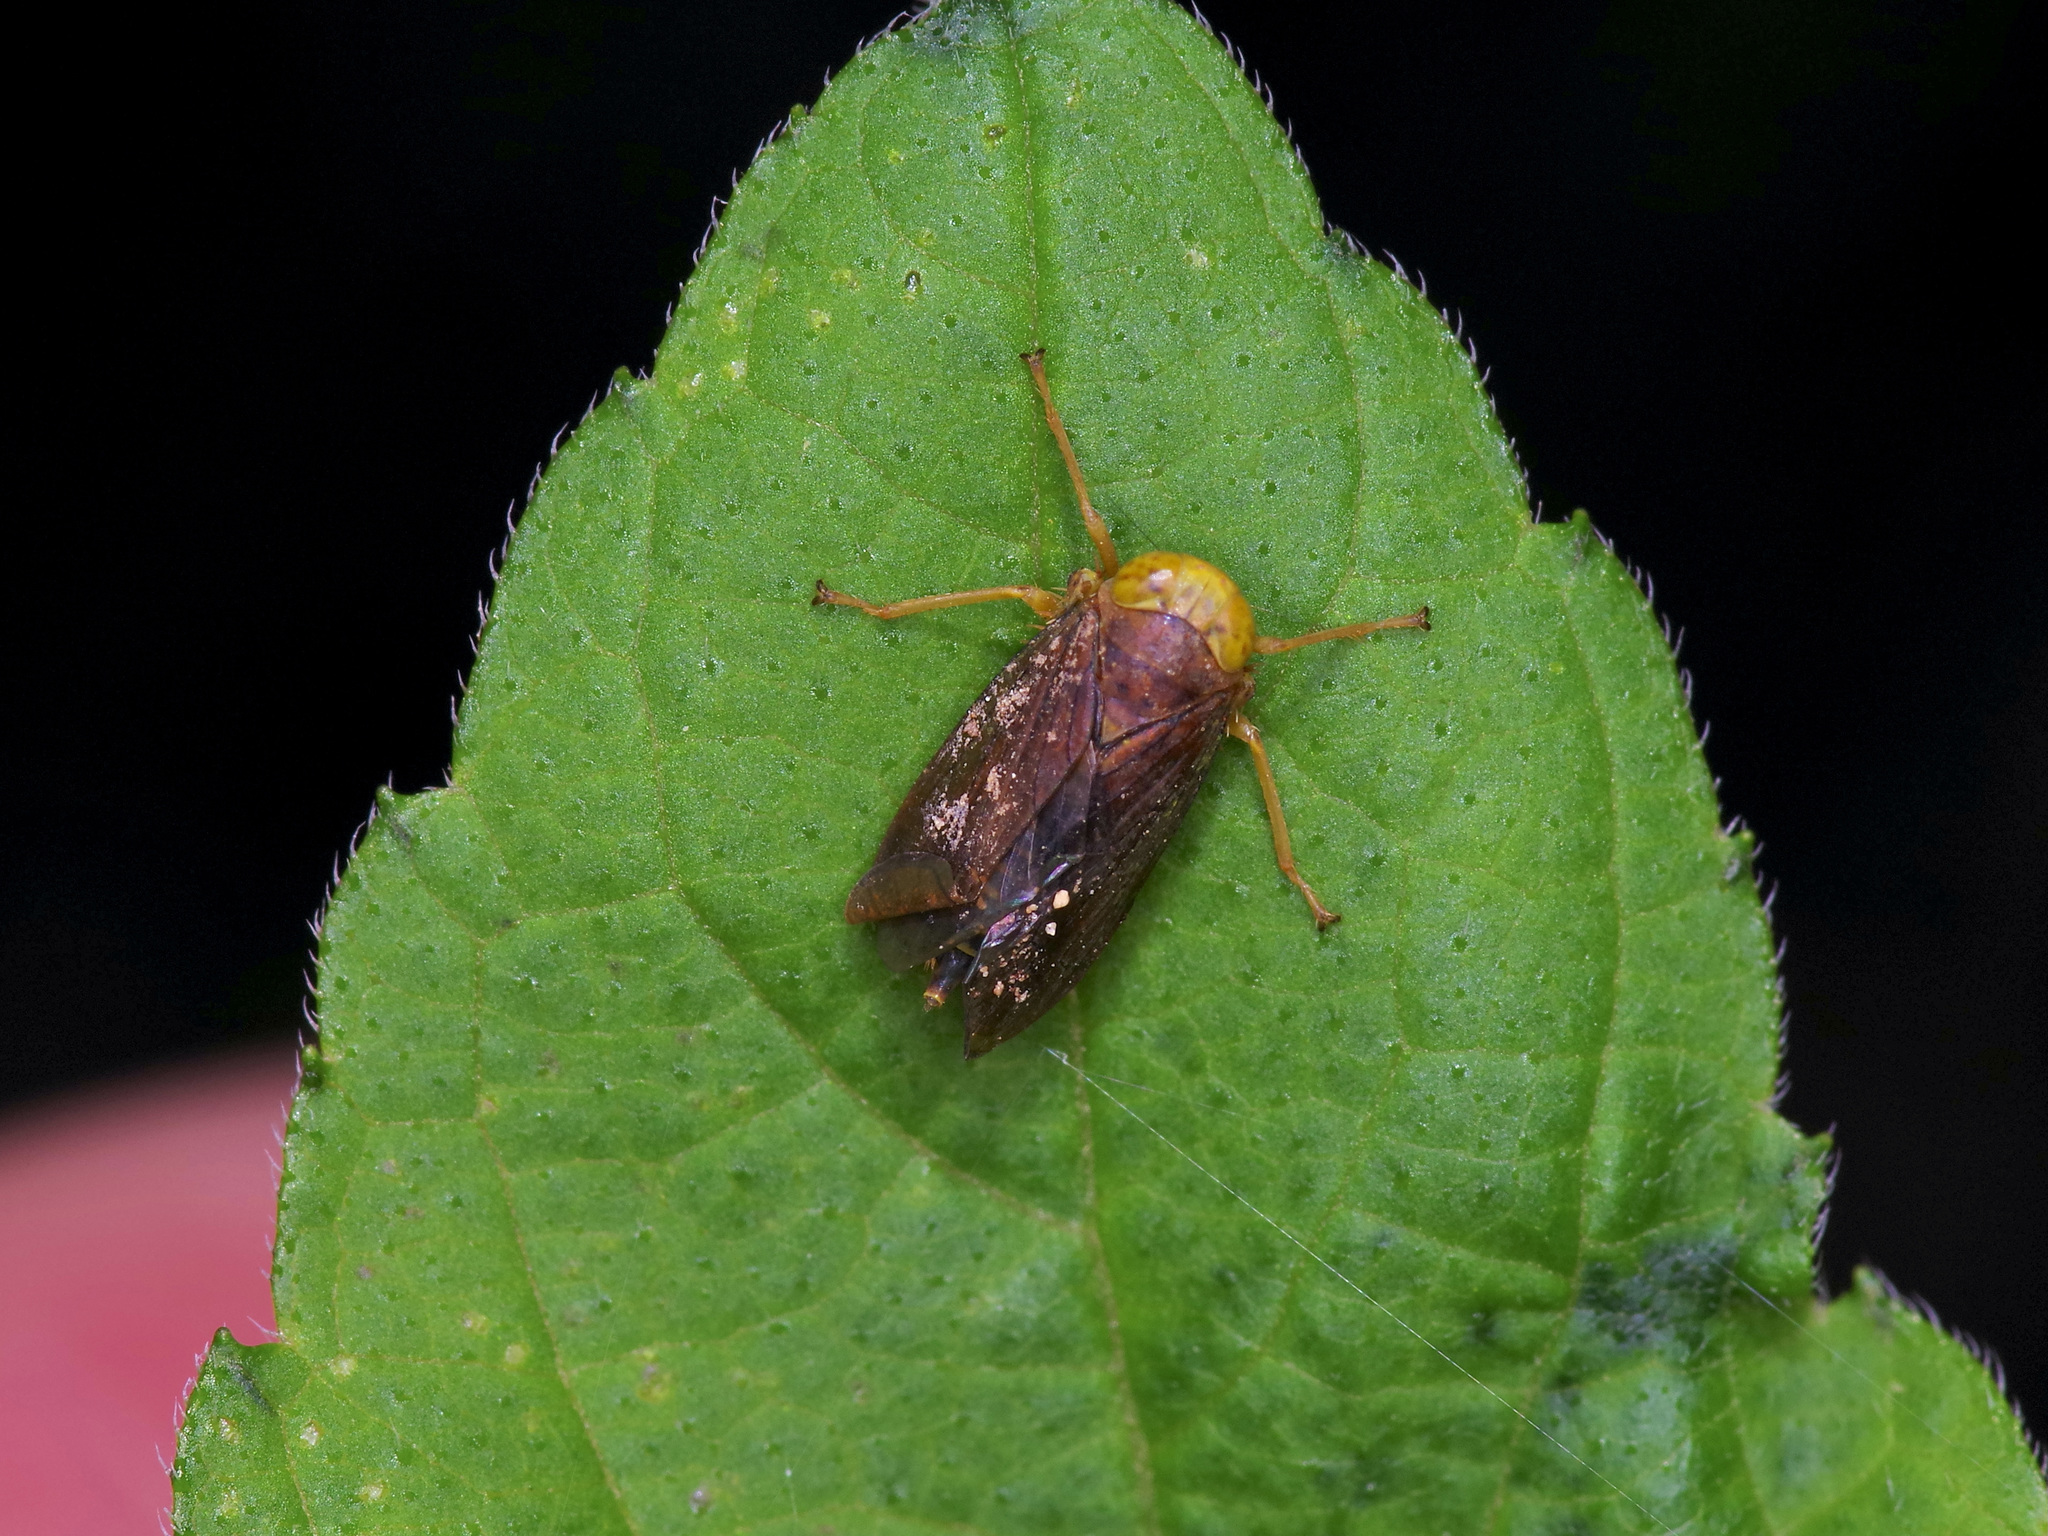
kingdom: Animalia
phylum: Arthropoda
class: Insecta
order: Hemiptera
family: Cicadellidae
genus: Jikradia
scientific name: Jikradia olitoria
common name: Coppery leafhopper
